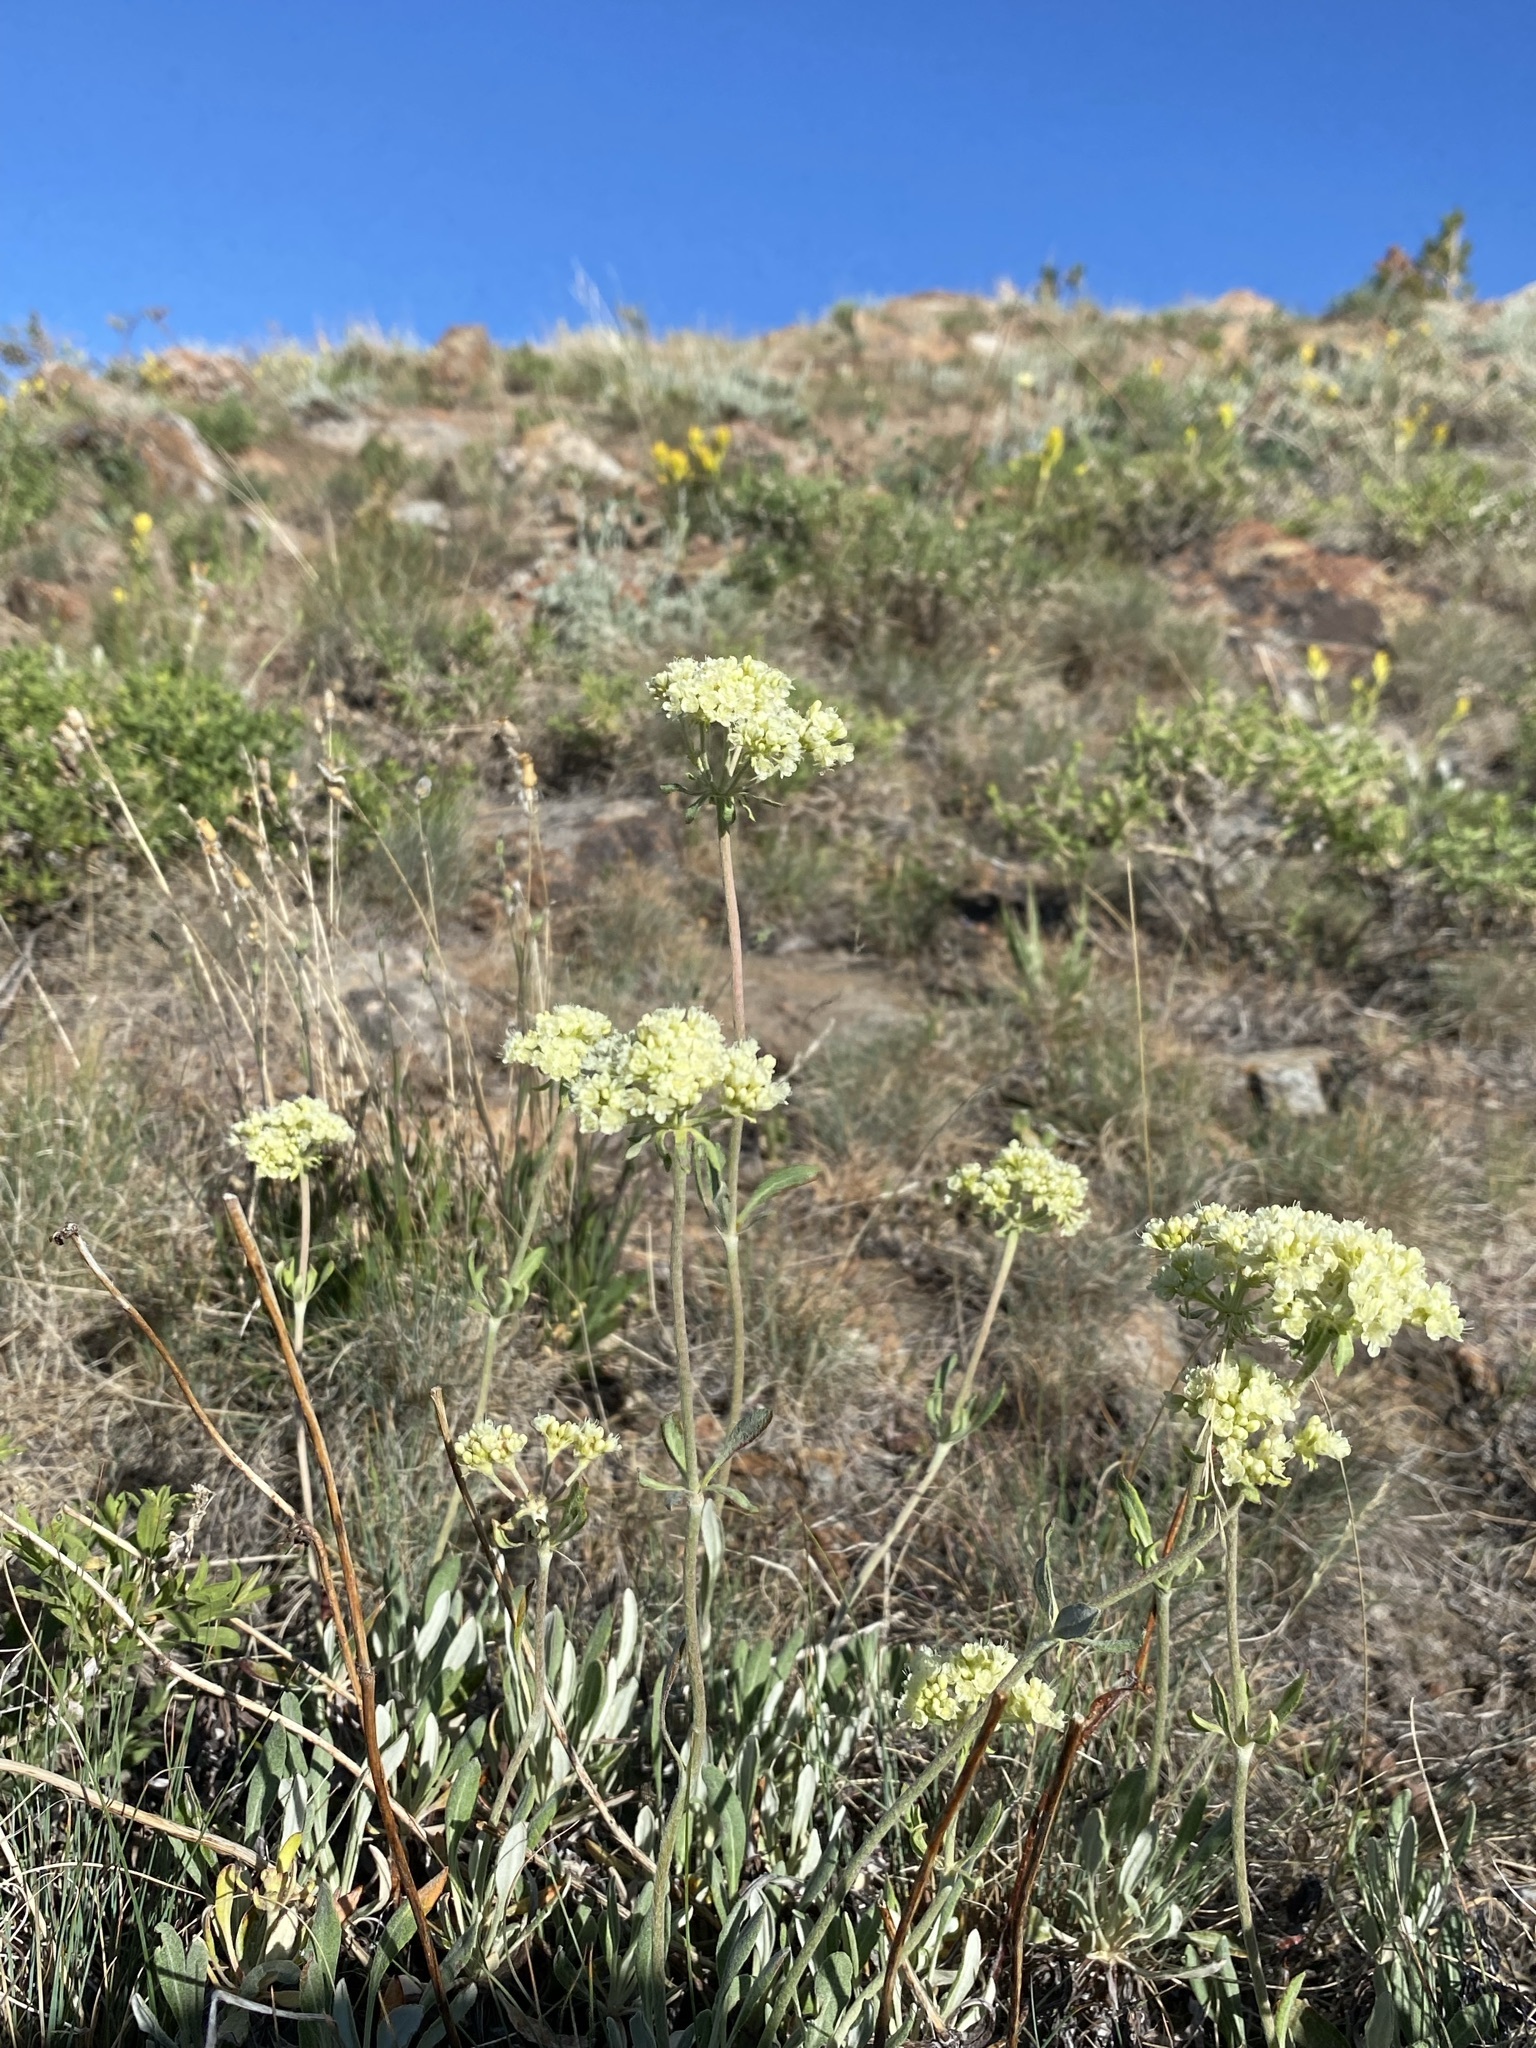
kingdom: Plantae
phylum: Tracheophyta
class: Magnoliopsida
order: Caryophyllales
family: Polygonaceae
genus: Eriogonum
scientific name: Eriogonum heracleoides
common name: Wyeth's buckwheat
